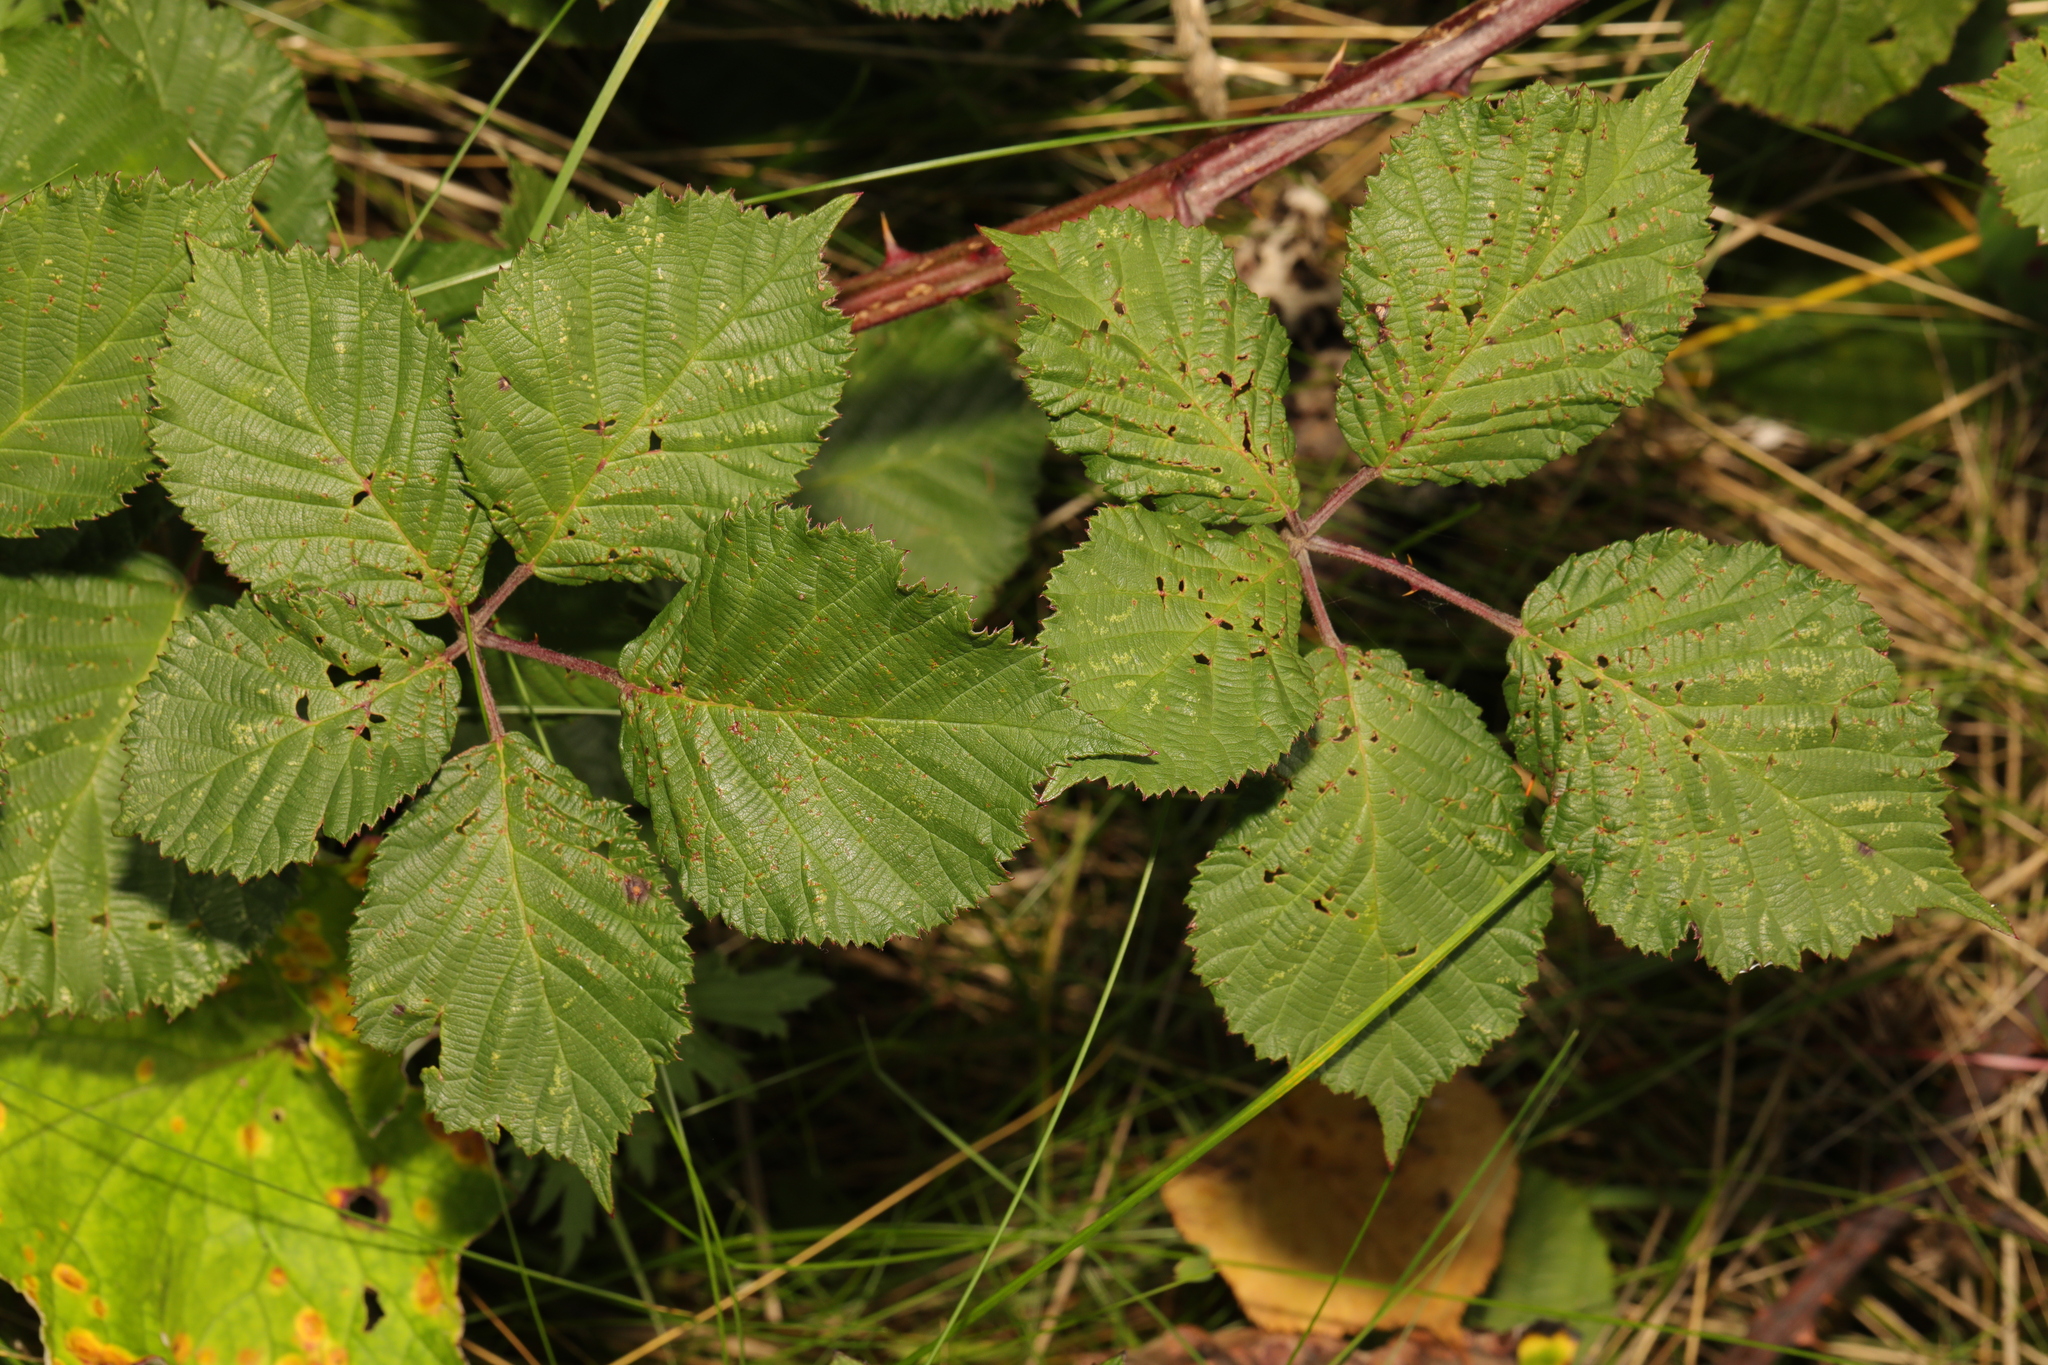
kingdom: Plantae
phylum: Tracheophyta
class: Magnoliopsida
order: Rosales
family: Rosaceae
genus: Rubus
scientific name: Rubus armeniacus
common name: Himalayan blackberry
